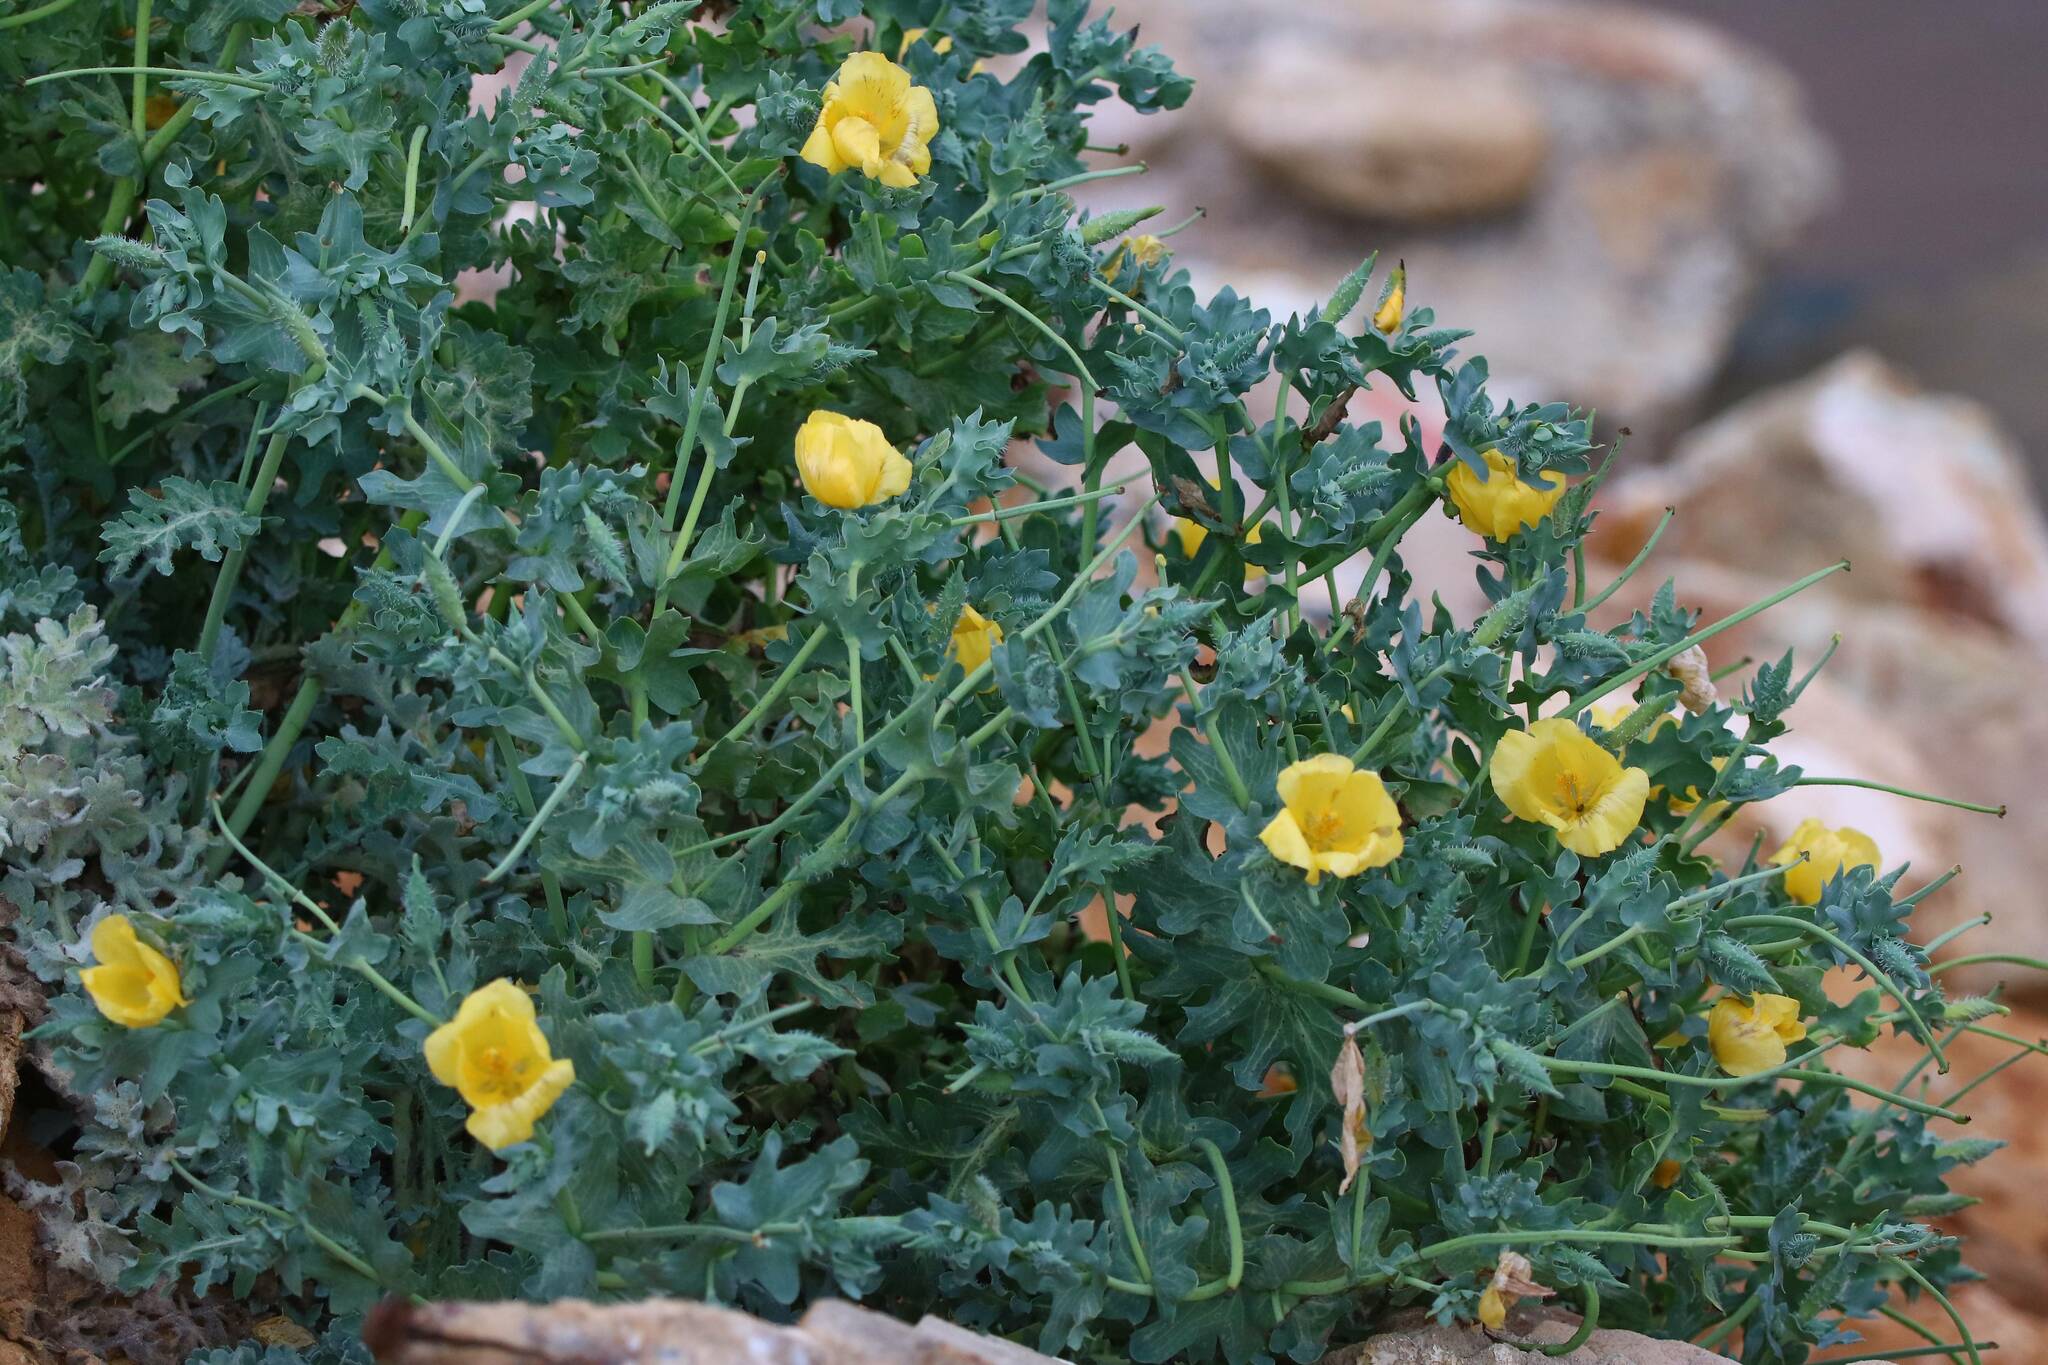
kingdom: Plantae
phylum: Tracheophyta
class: Magnoliopsida
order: Ranunculales
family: Papaveraceae
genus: Glaucium
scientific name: Glaucium flavum
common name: Yellow horned-poppy
